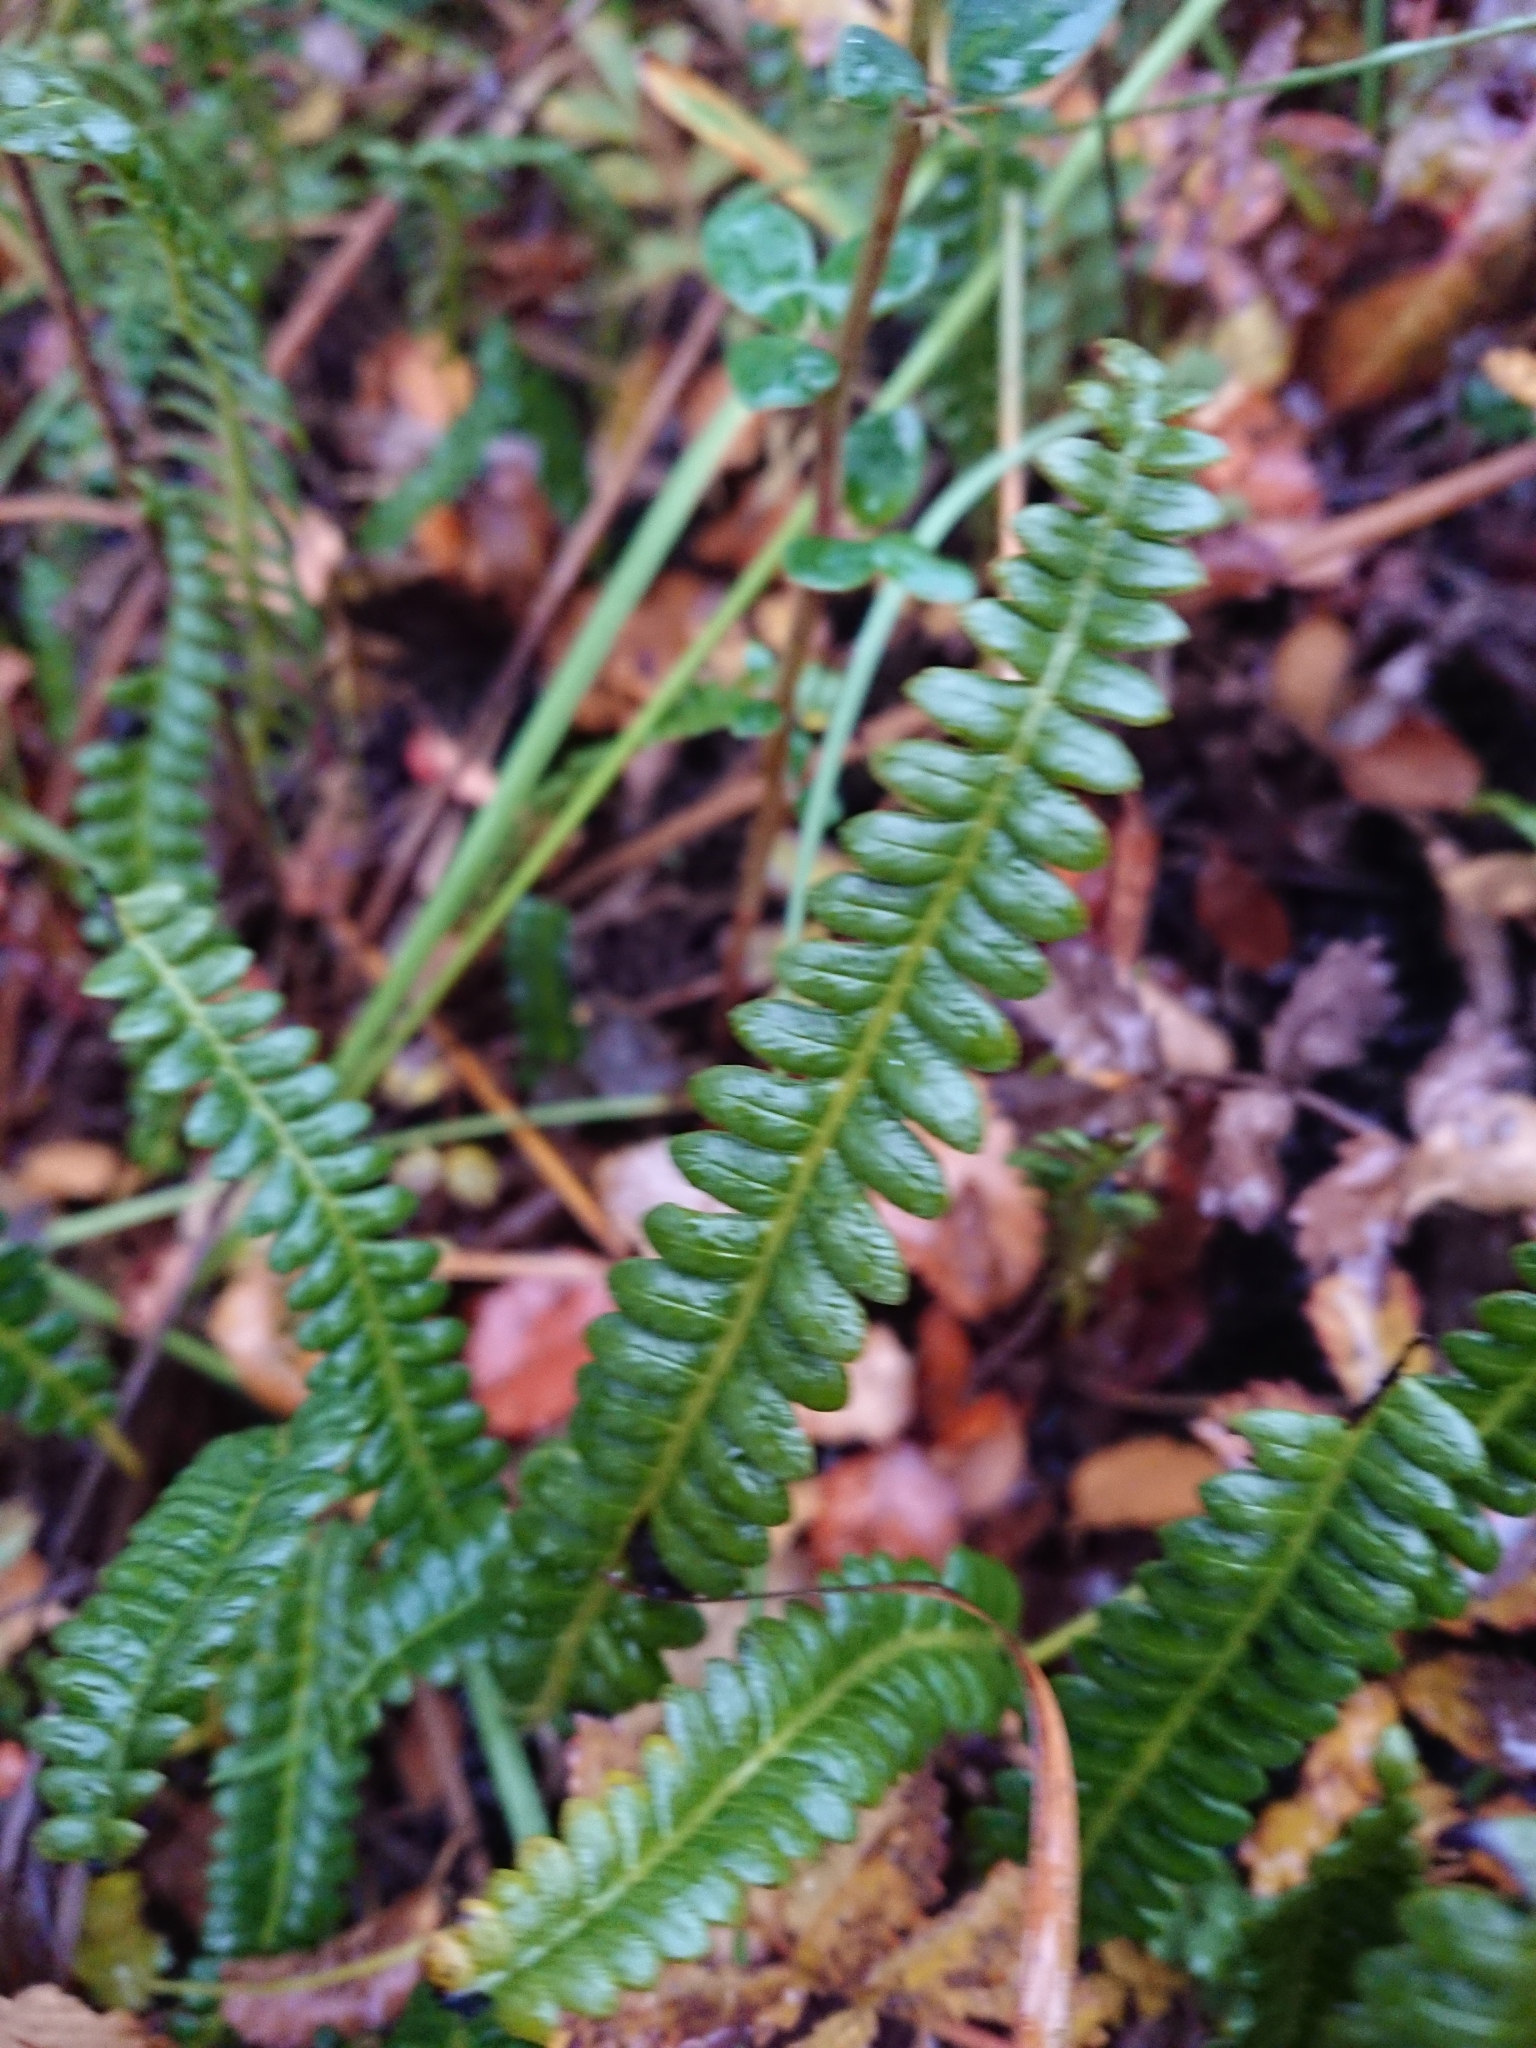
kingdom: Plantae
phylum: Tracheophyta
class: Polypodiopsida
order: Polypodiales
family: Blechnaceae
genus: Austroblechnum
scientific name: Austroblechnum penna-marina
